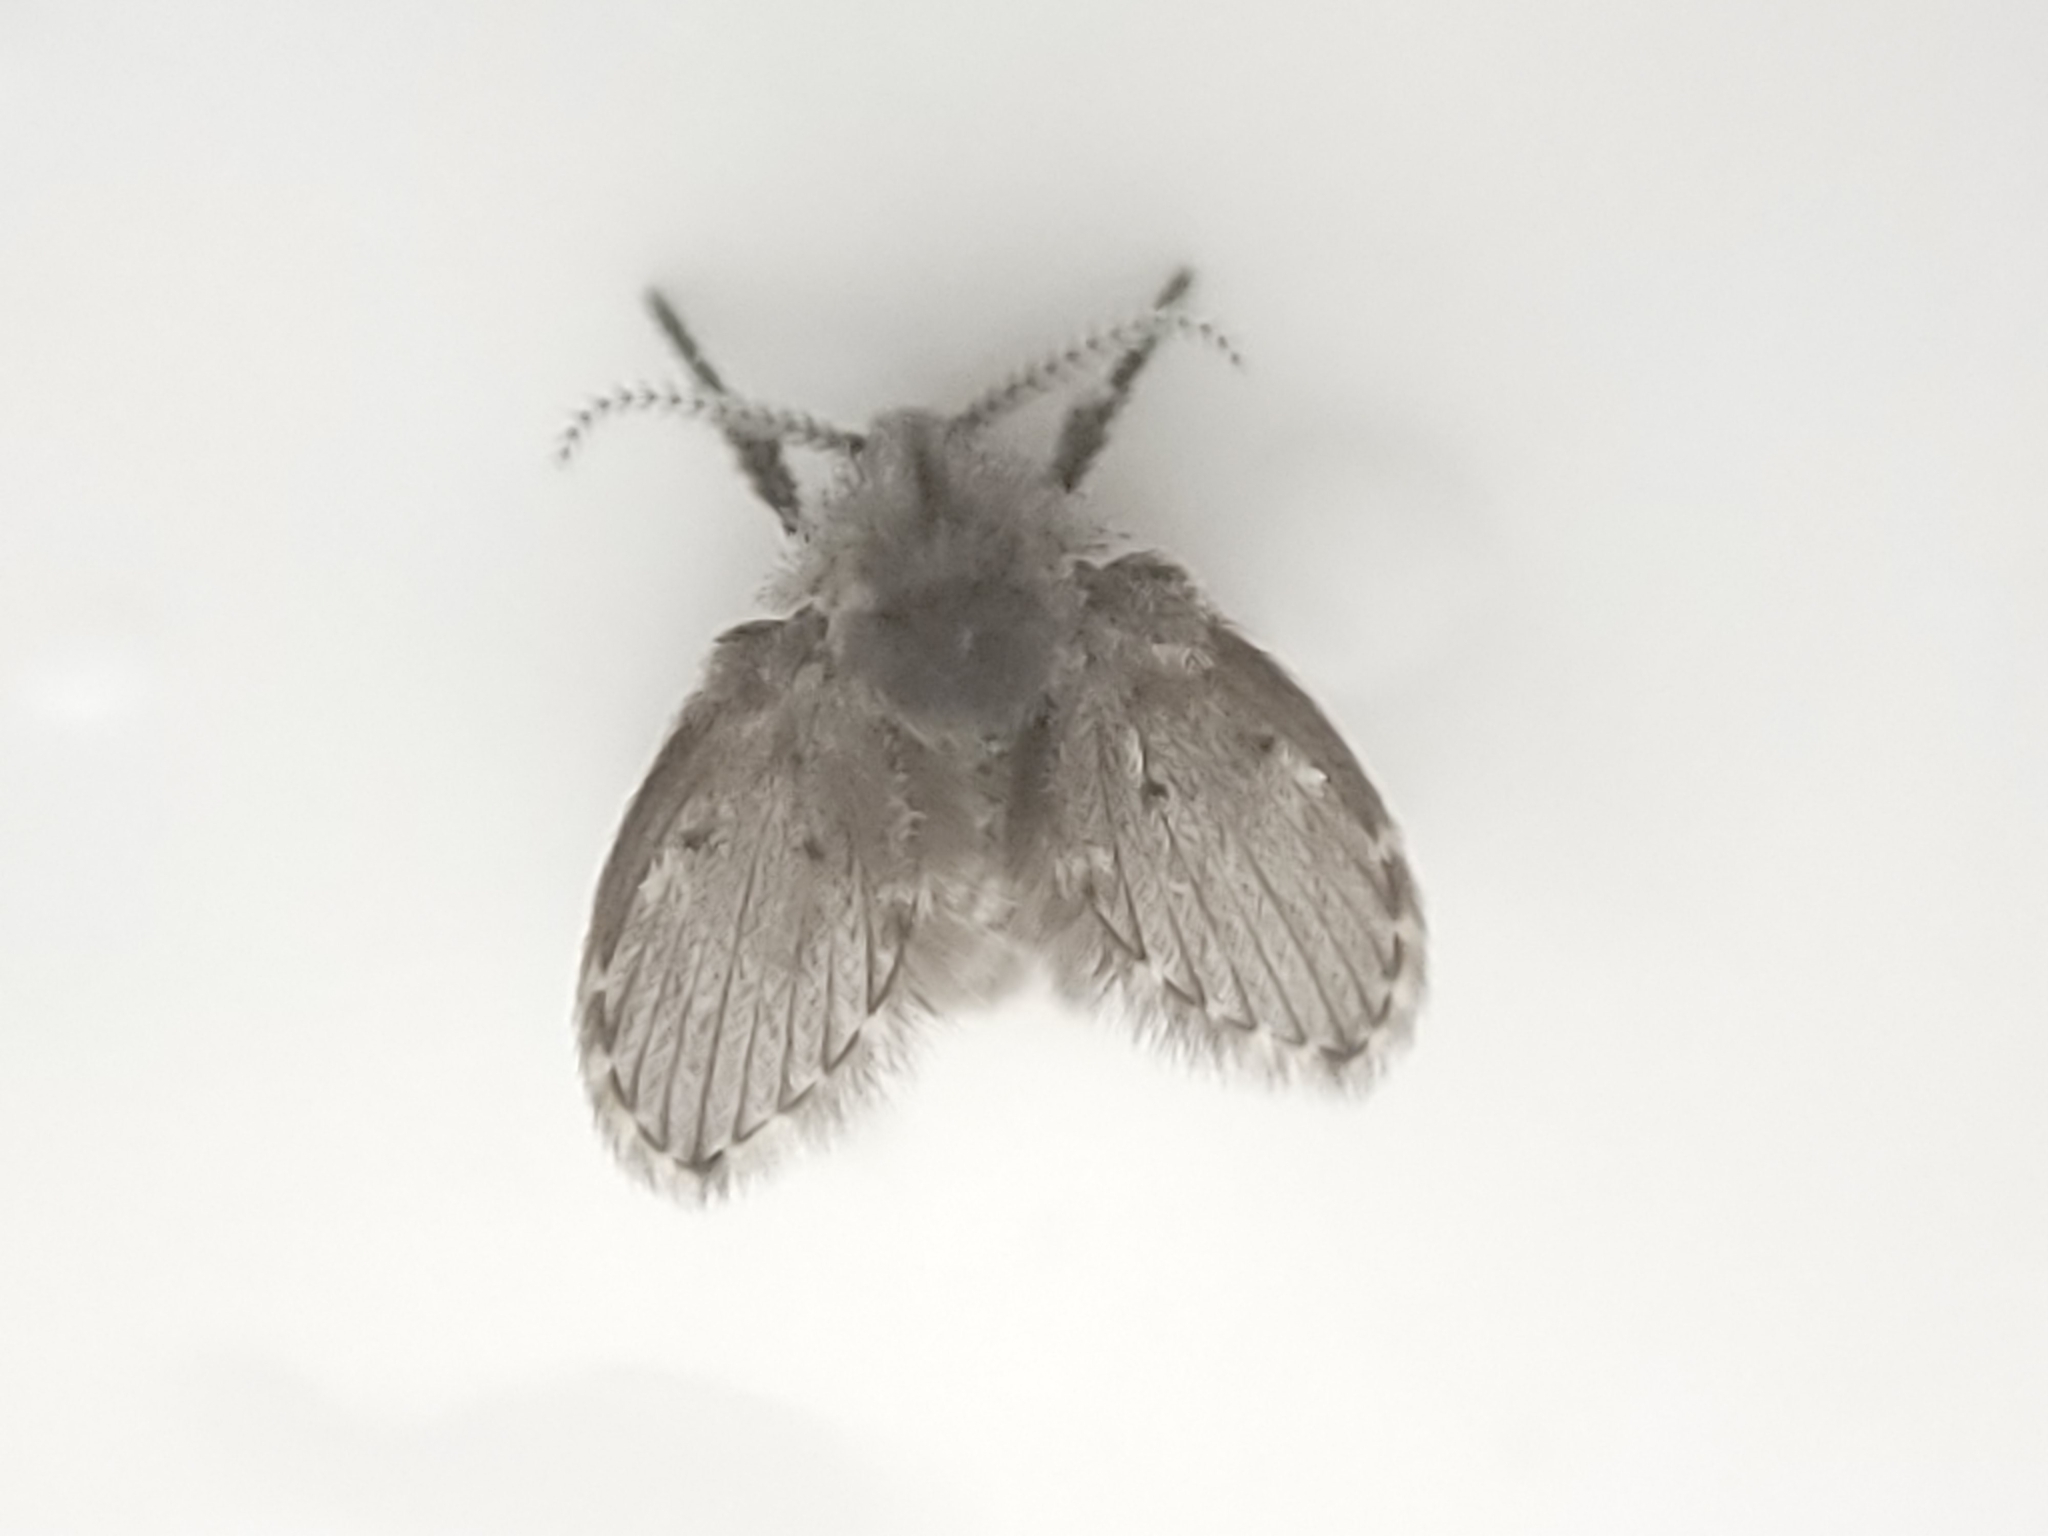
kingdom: Animalia
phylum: Arthropoda
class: Insecta
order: Diptera
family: Psychodidae
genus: Clogmia
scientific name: Clogmia albipunctatus
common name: White-spotted moth fly
